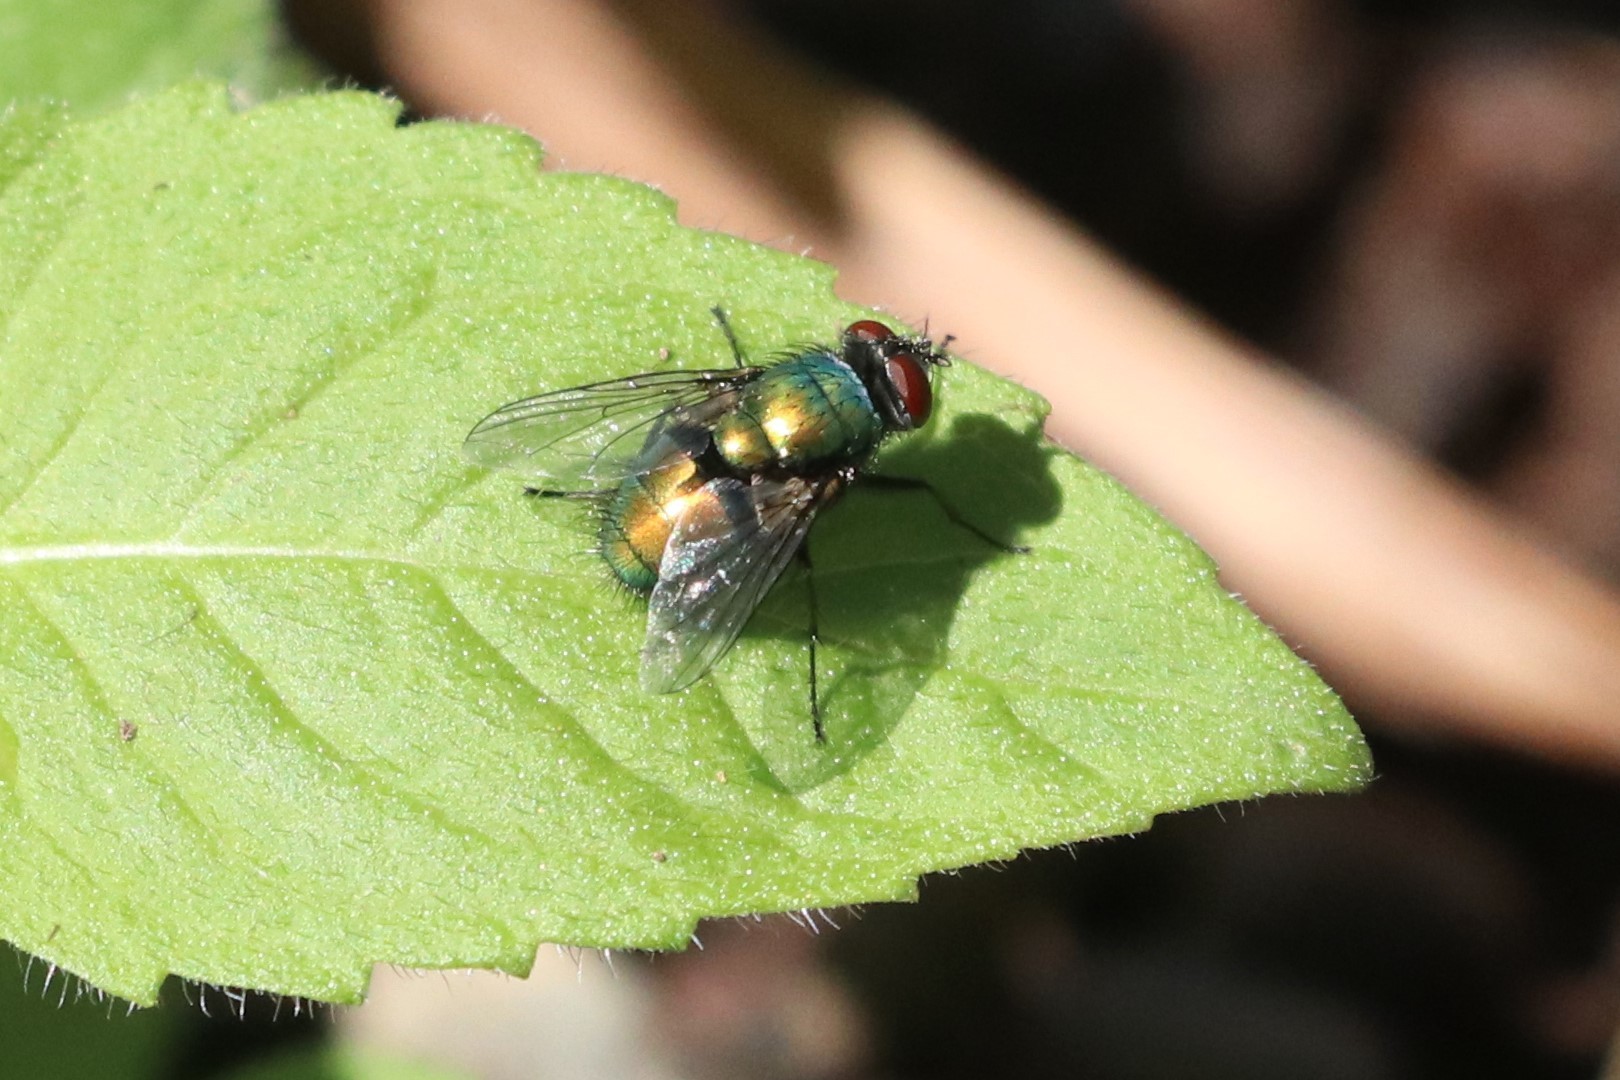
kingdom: Animalia
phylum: Arthropoda
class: Insecta
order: Diptera
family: Calliphoridae
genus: Lucilia
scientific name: Lucilia sericata
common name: Blow fly
